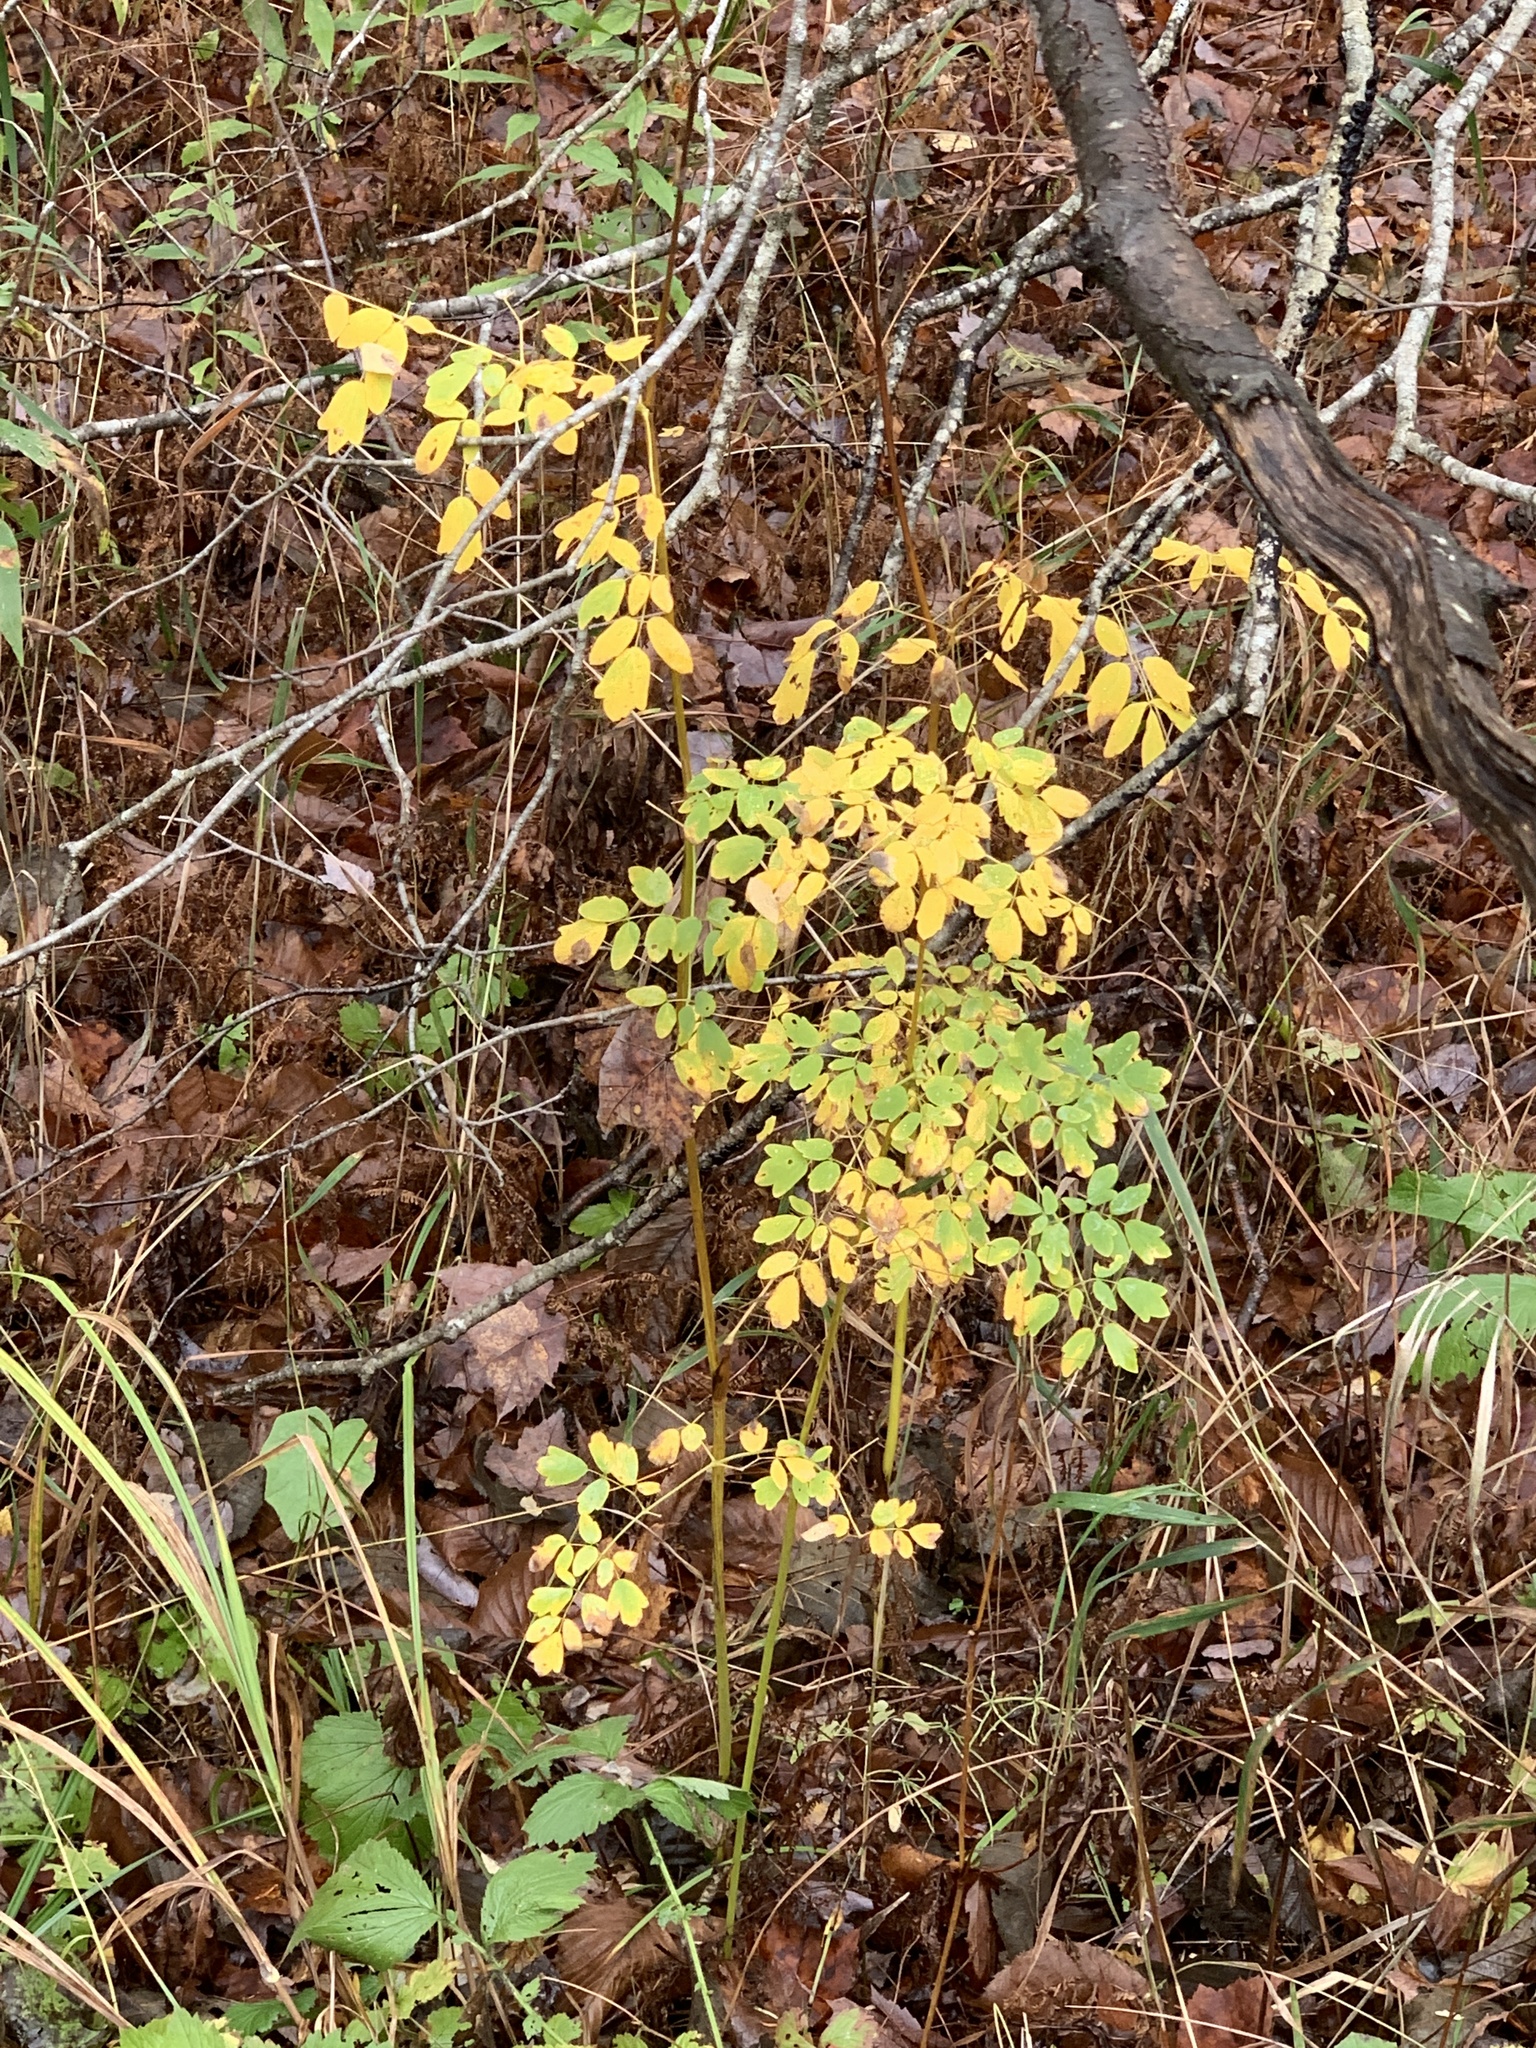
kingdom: Plantae
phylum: Tracheophyta
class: Magnoliopsida
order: Ranunculales
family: Ranunculaceae
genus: Thalictrum
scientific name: Thalictrum pubescens
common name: King-of-the-meadow
